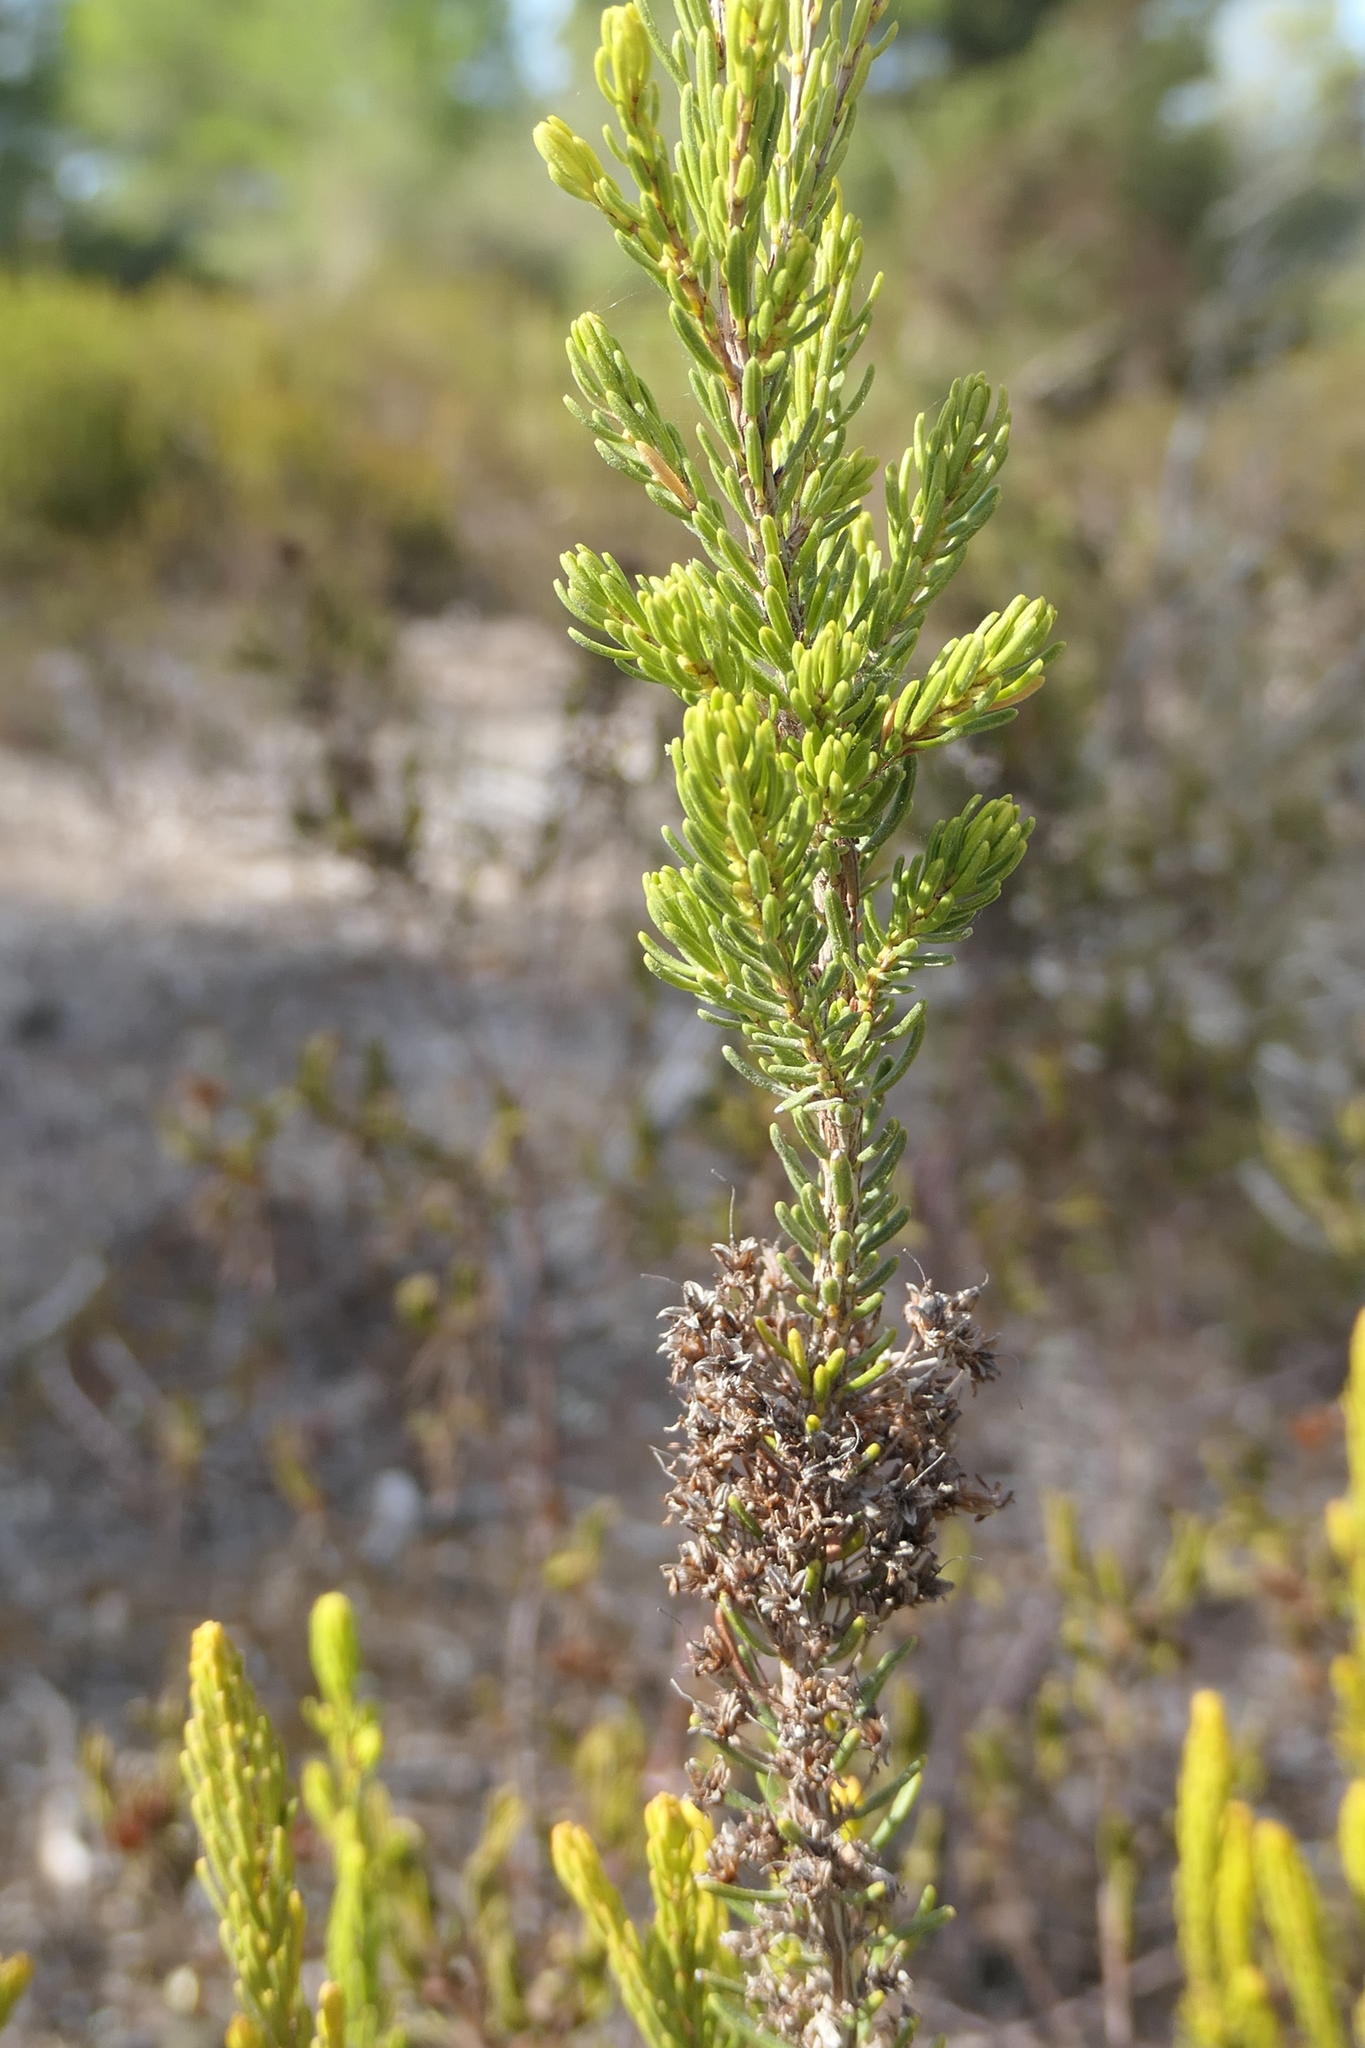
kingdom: Plantae
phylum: Tracheophyta
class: Magnoliopsida
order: Ericales
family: Ericaceae
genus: Erica
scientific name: Erica multiflora
